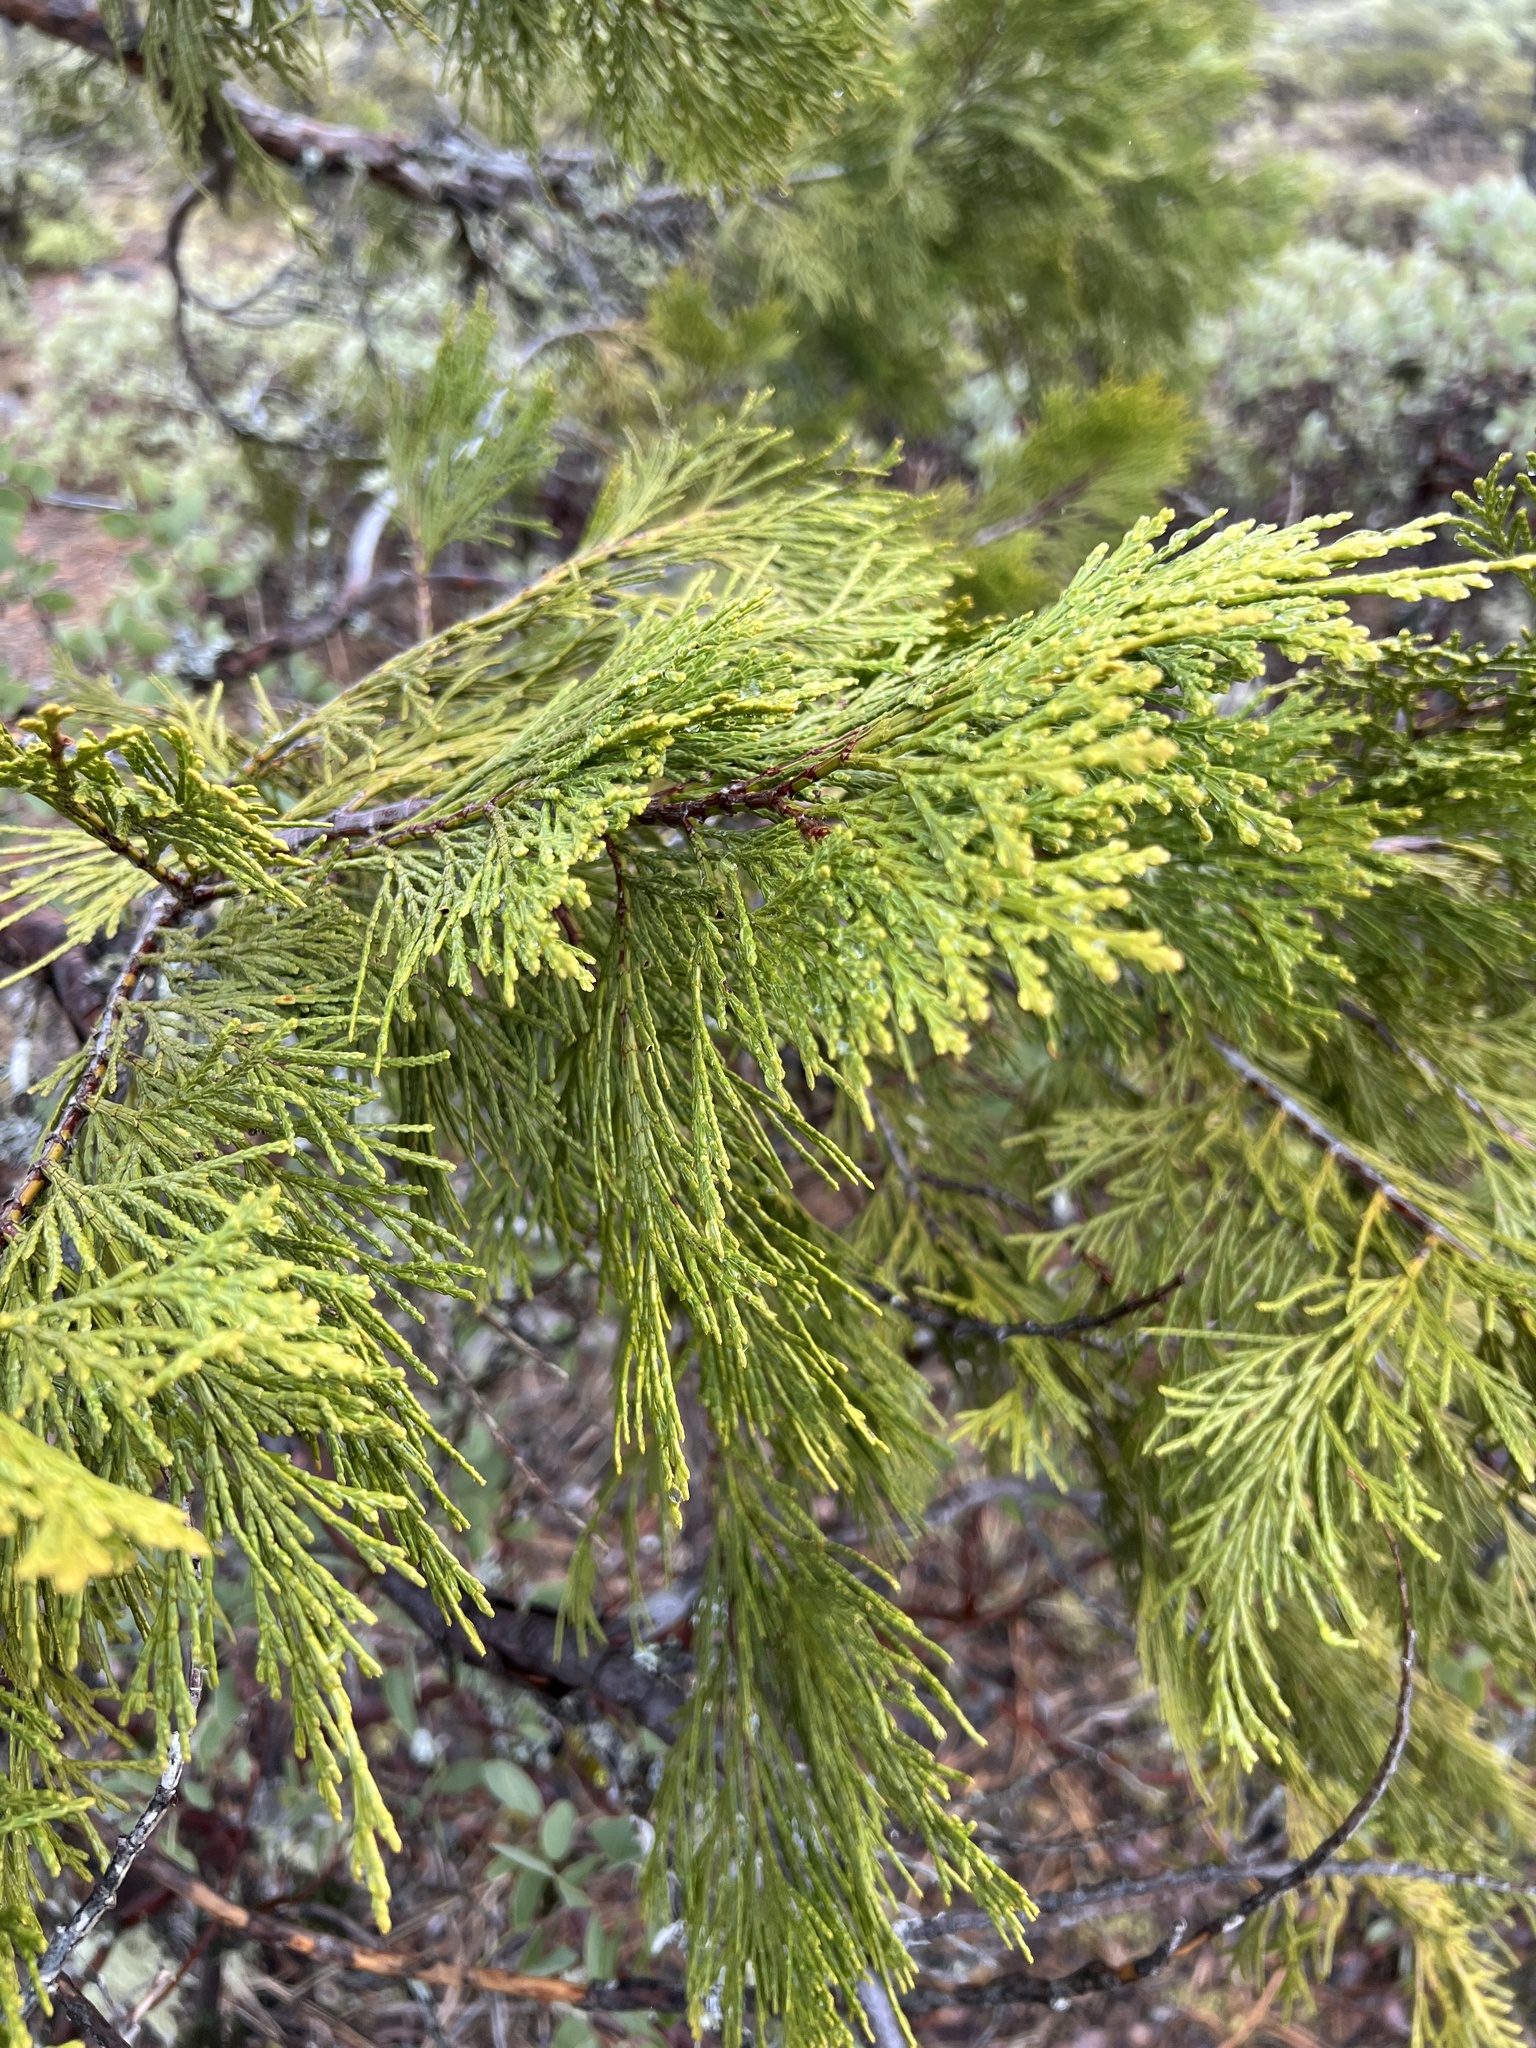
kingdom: Plantae
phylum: Tracheophyta
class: Pinopsida
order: Pinales
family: Cupressaceae
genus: Calocedrus
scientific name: Calocedrus decurrens
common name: Californian incense-cedar
